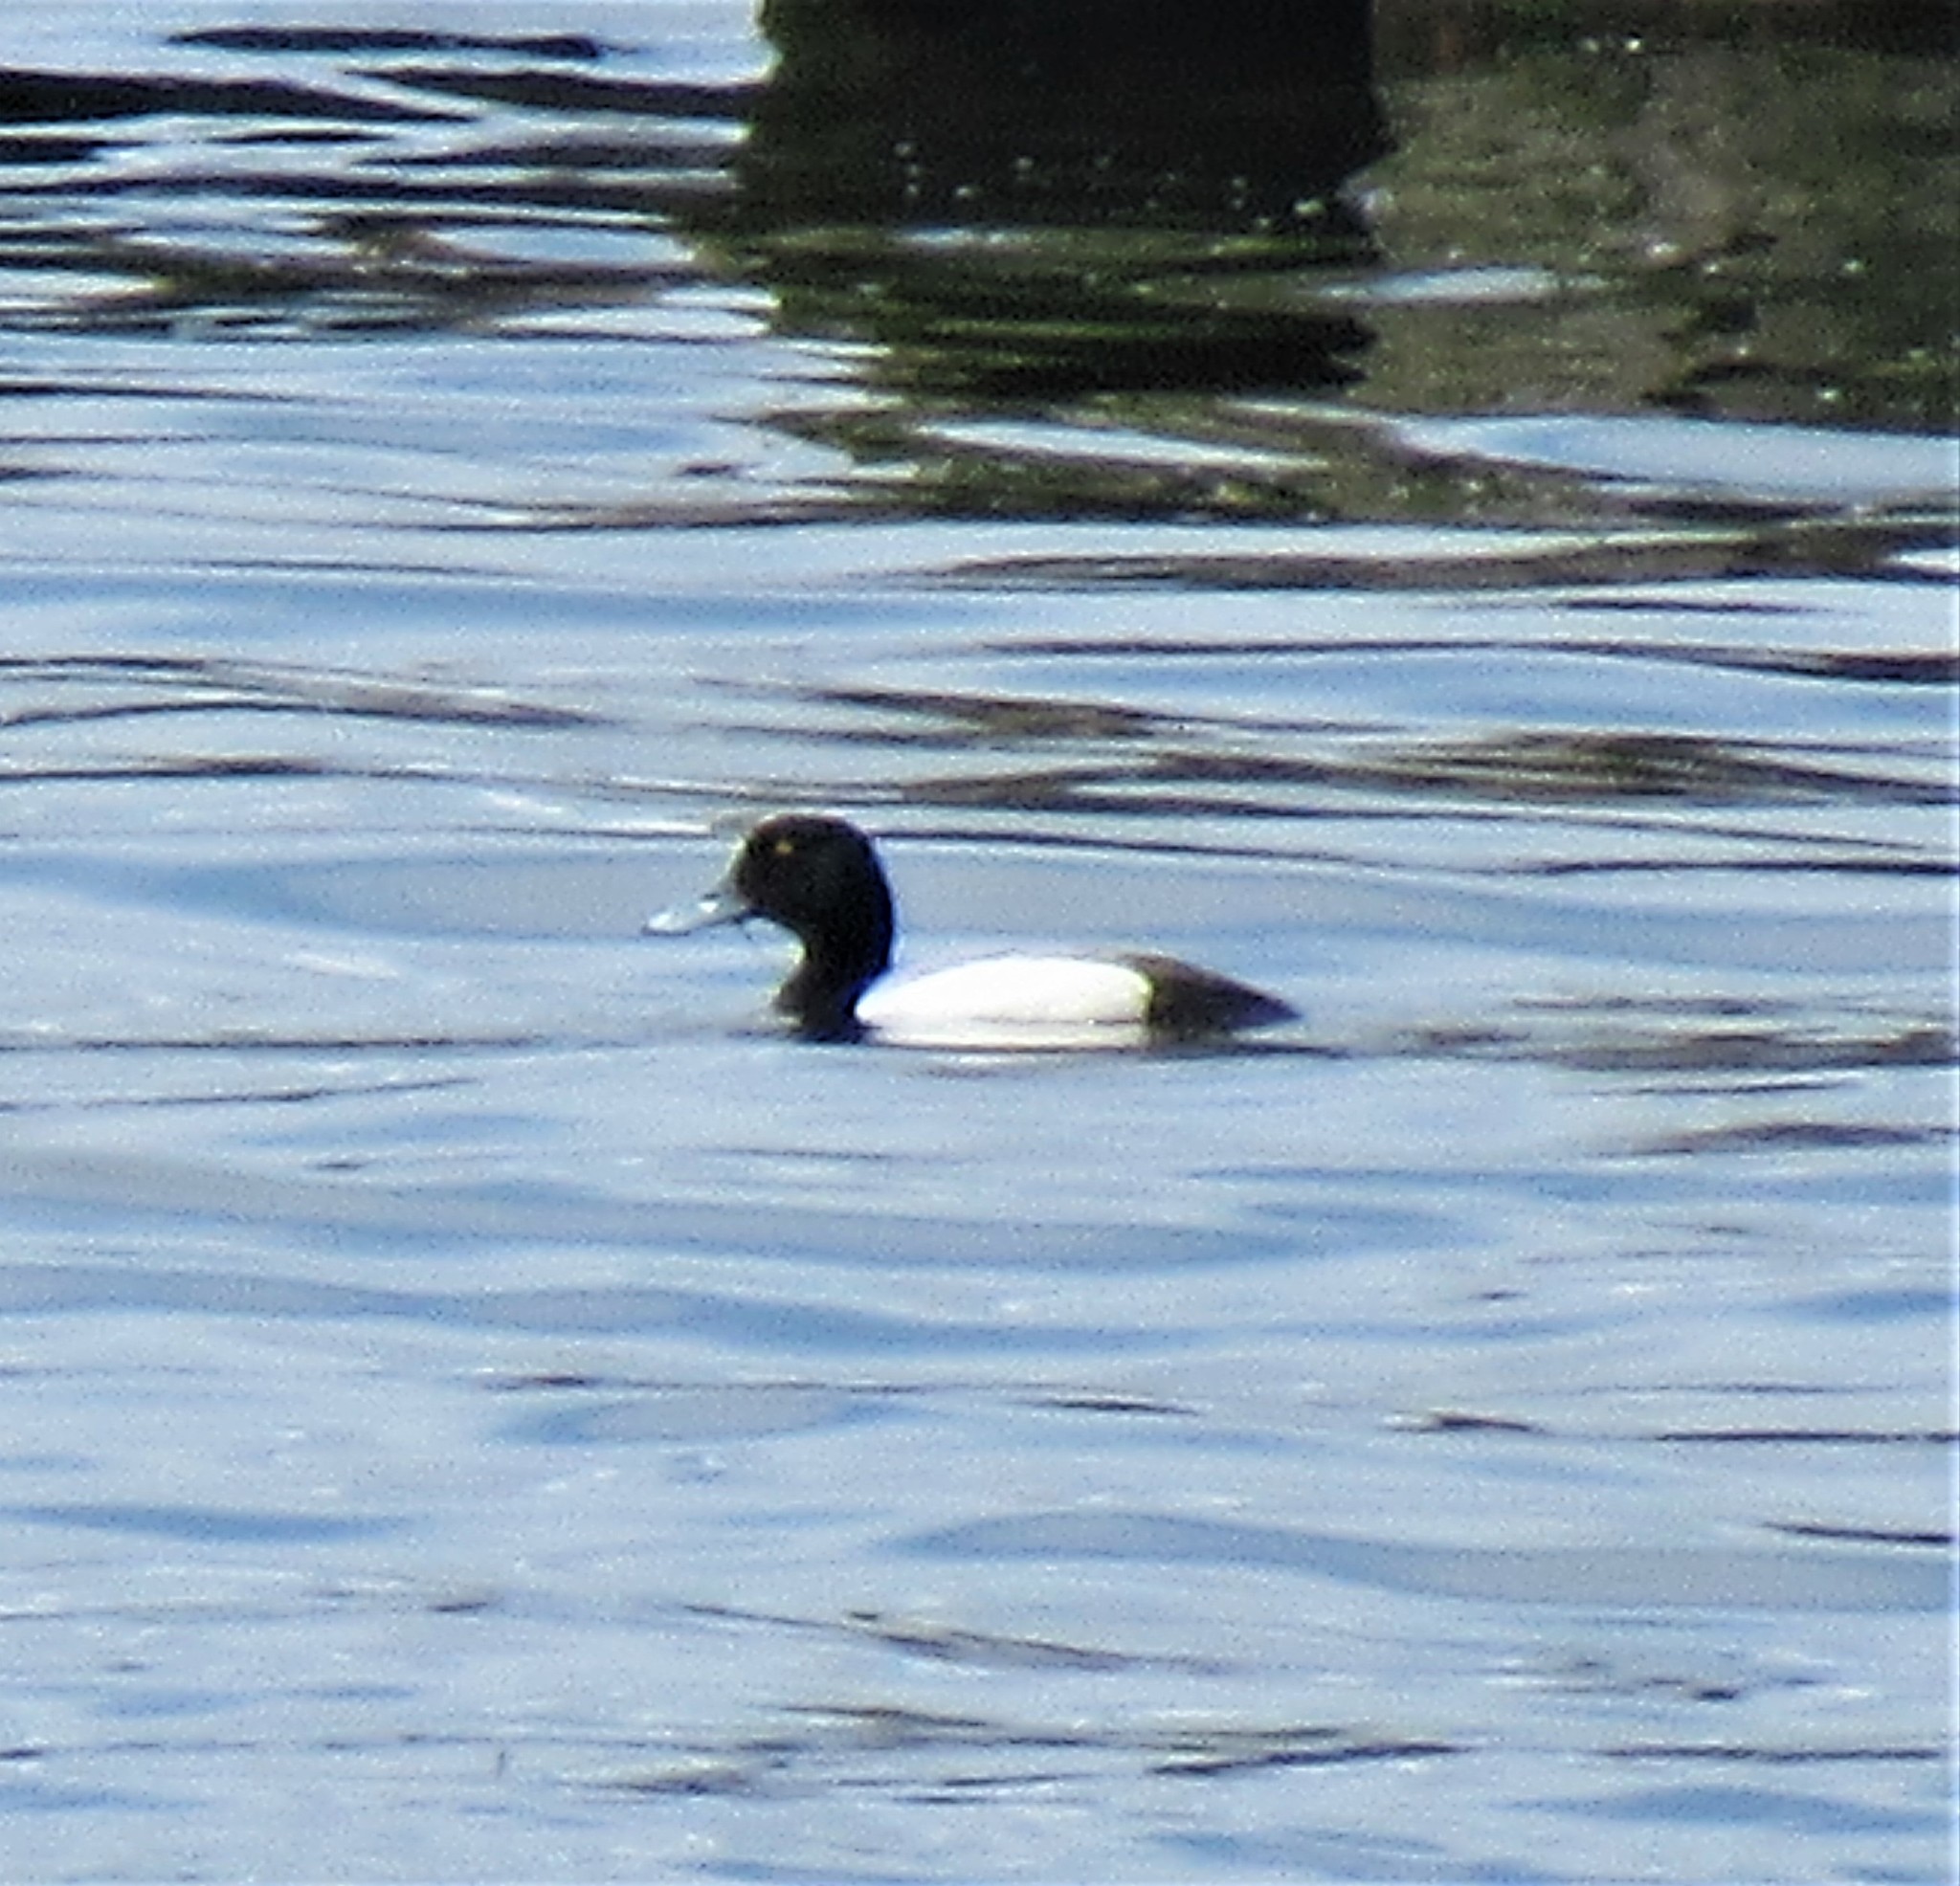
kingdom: Animalia
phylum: Chordata
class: Aves
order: Anseriformes
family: Anatidae
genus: Aythya
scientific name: Aythya marila
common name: Greater scaup
